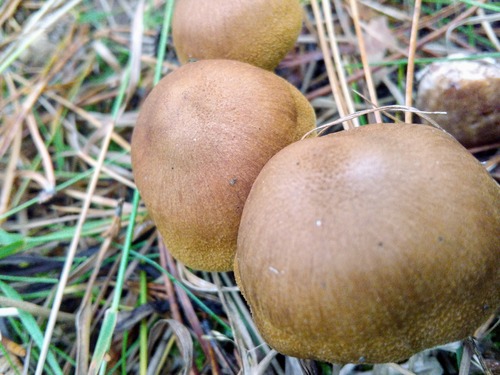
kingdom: Fungi
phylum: Basidiomycota
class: Agaricomycetes
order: Agaricales
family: Cortinariaceae
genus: Cortinarius
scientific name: Cortinarius
